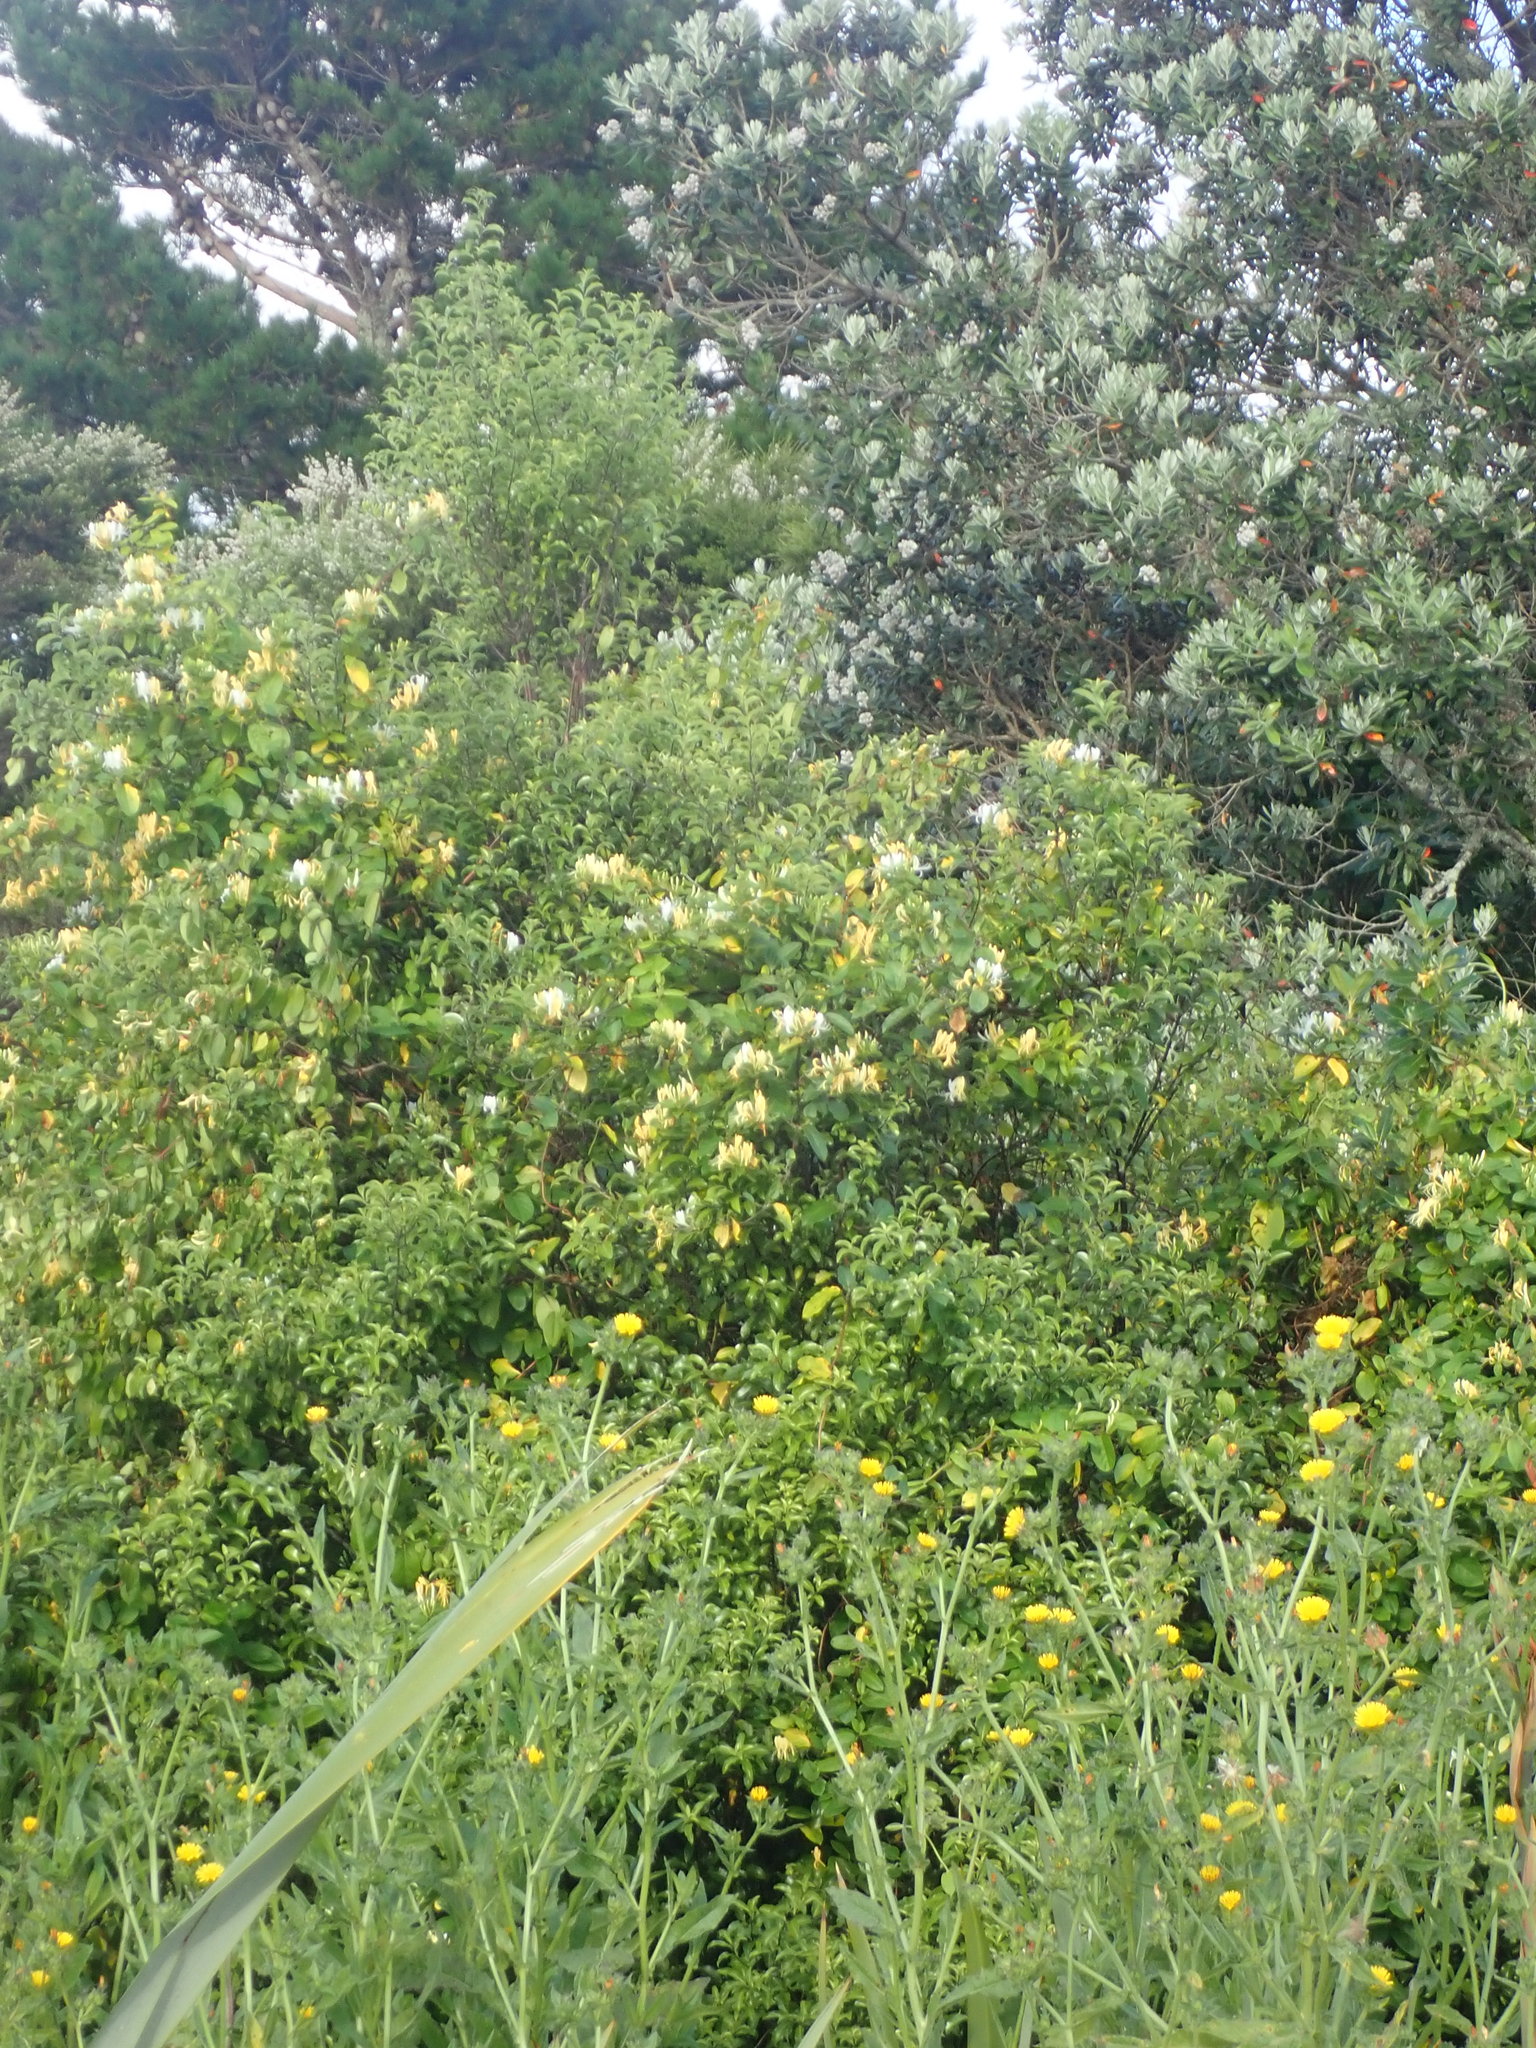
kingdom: Plantae
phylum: Tracheophyta
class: Magnoliopsida
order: Asterales
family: Asteraceae
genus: Helminthotheca
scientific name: Helminthotheca echioides
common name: Ox-tongue
